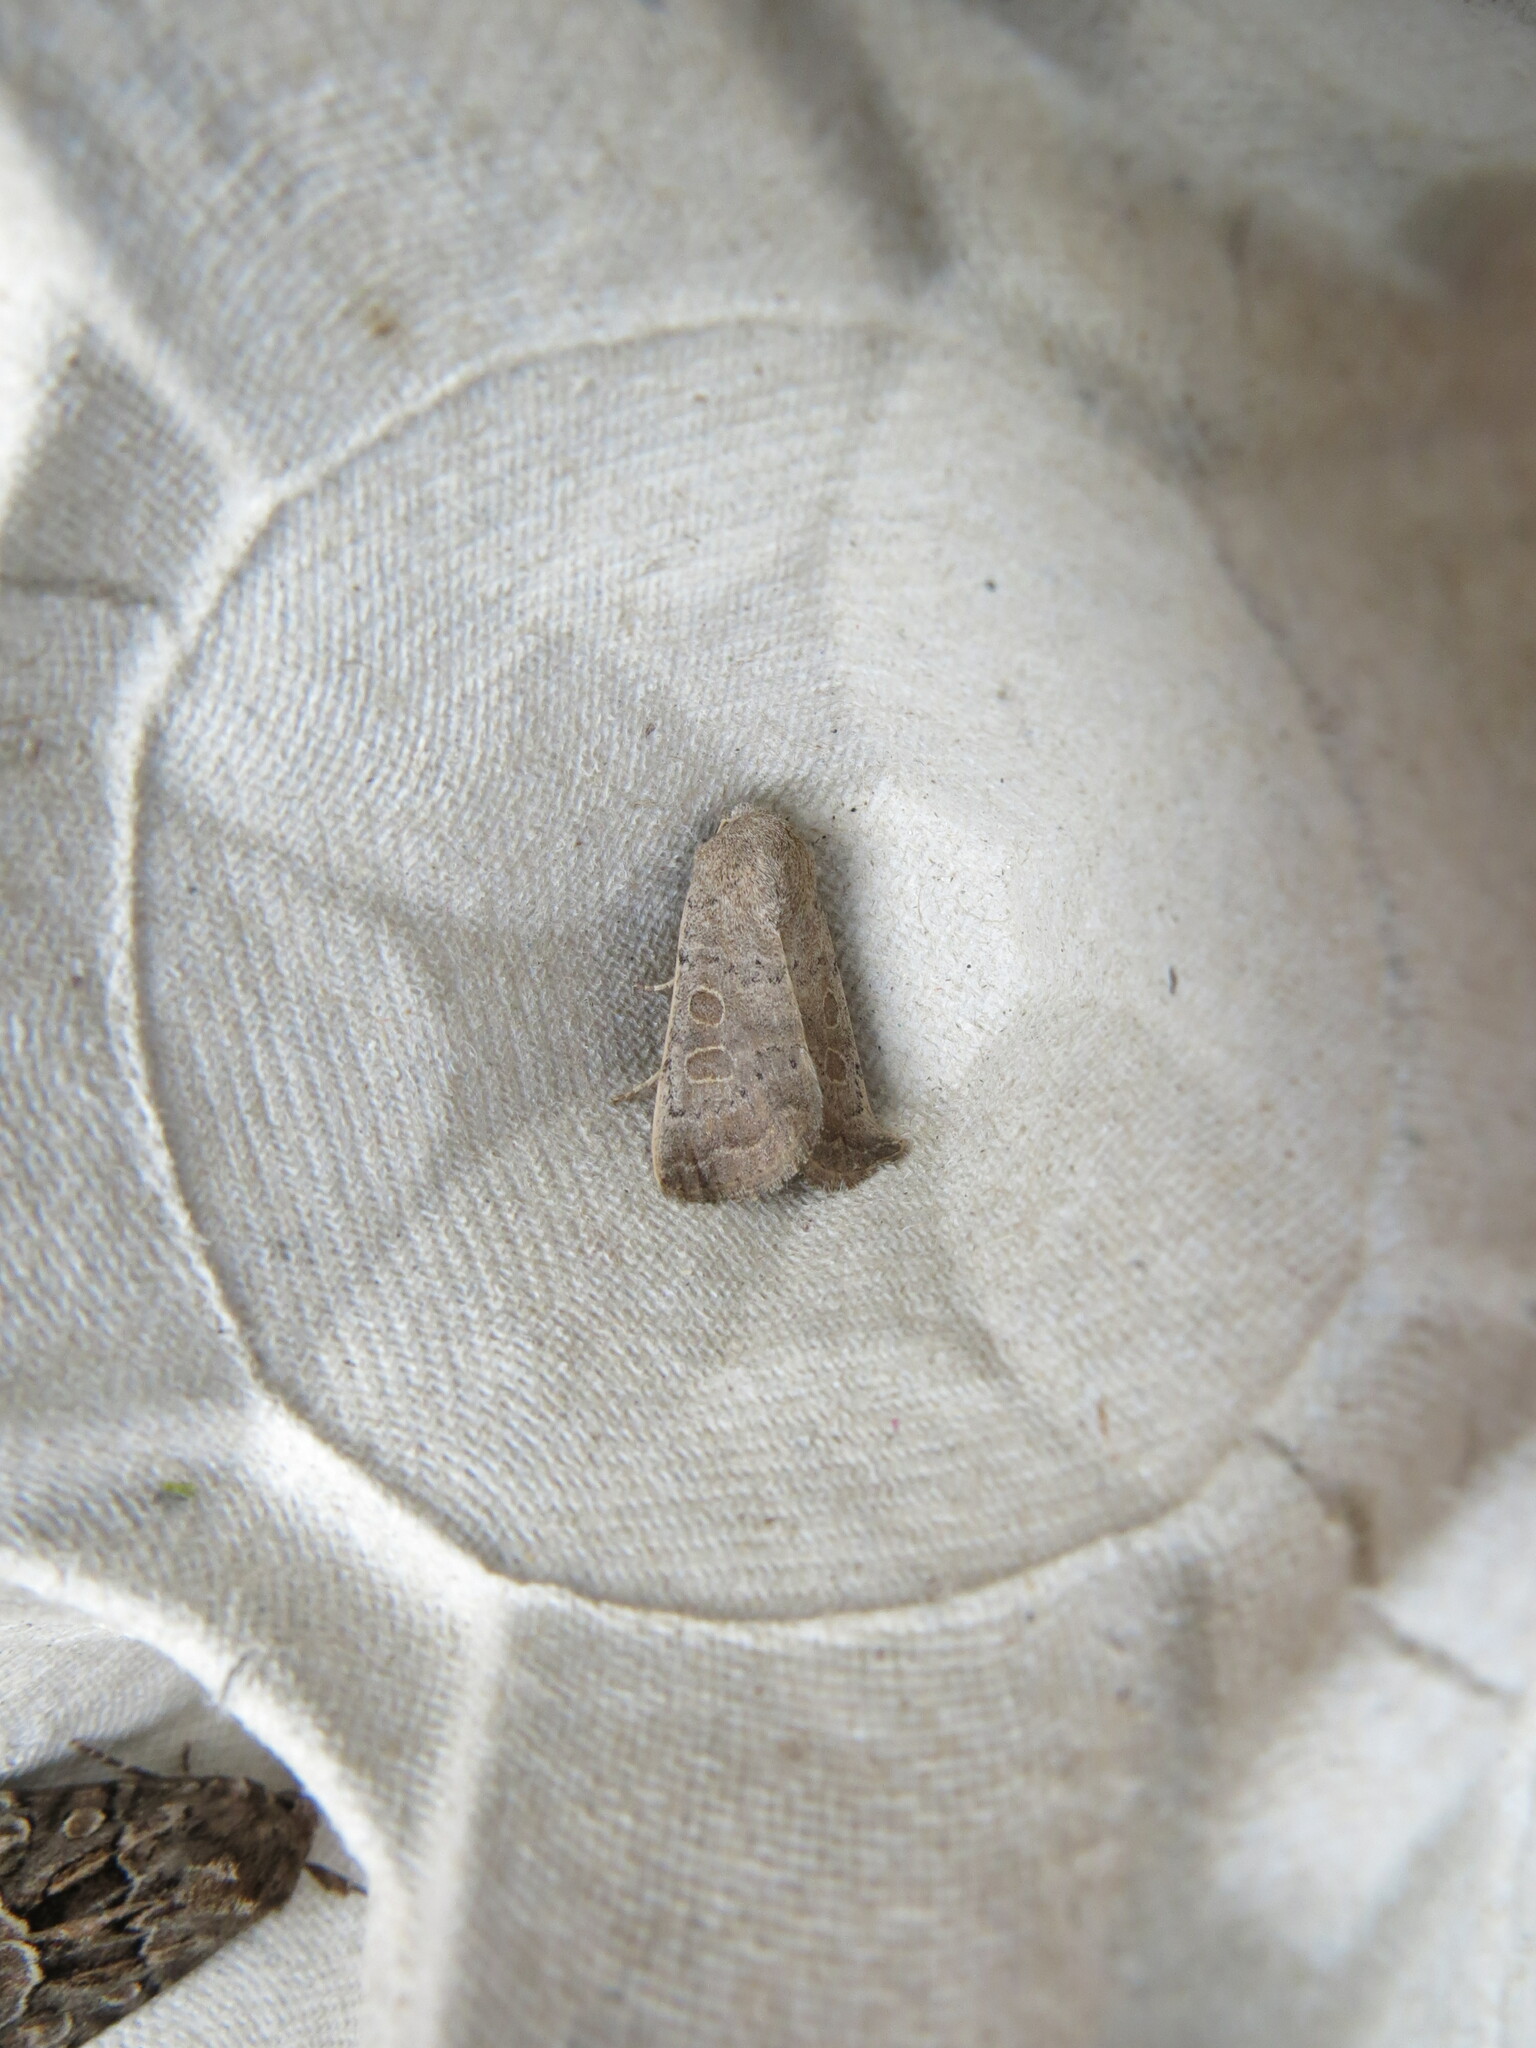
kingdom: Animalia
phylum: Arthropoda
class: Insecta
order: Lepidoptera
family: Noctuidae
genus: Hoplodrina
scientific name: Hoplodrina ambigua
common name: Vine's rustic
